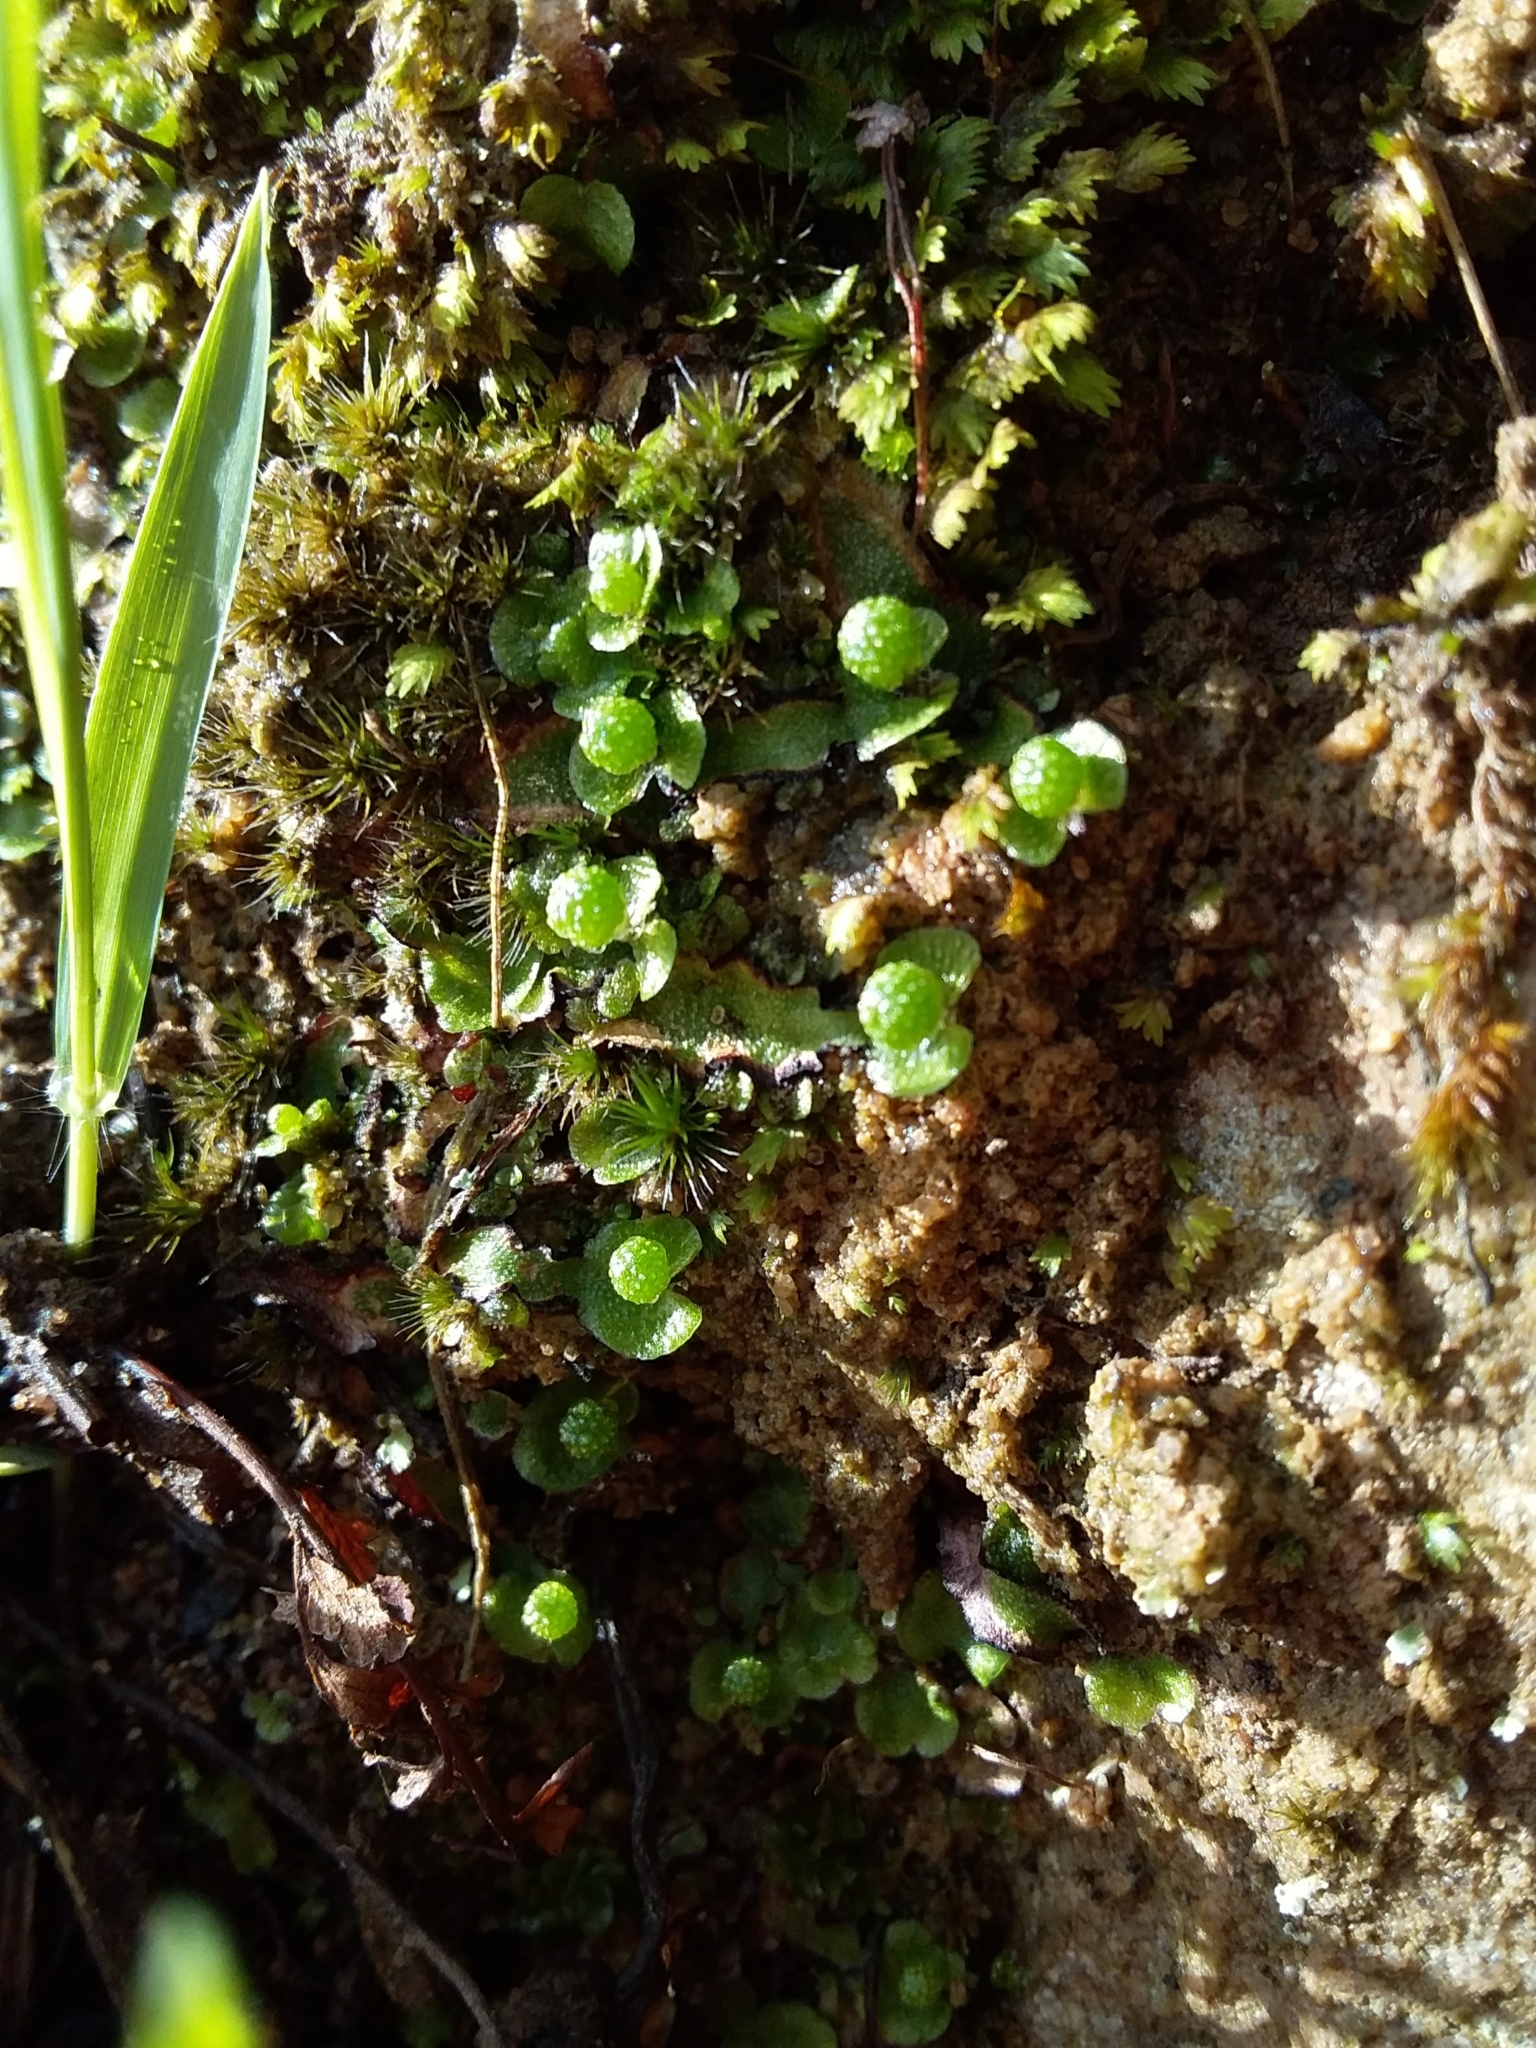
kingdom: Plantae
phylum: Marchantiophyta
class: Marchantiopsida
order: Marchantiales
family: Aytoniaceae
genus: Asterella
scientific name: Asterella drummondii
